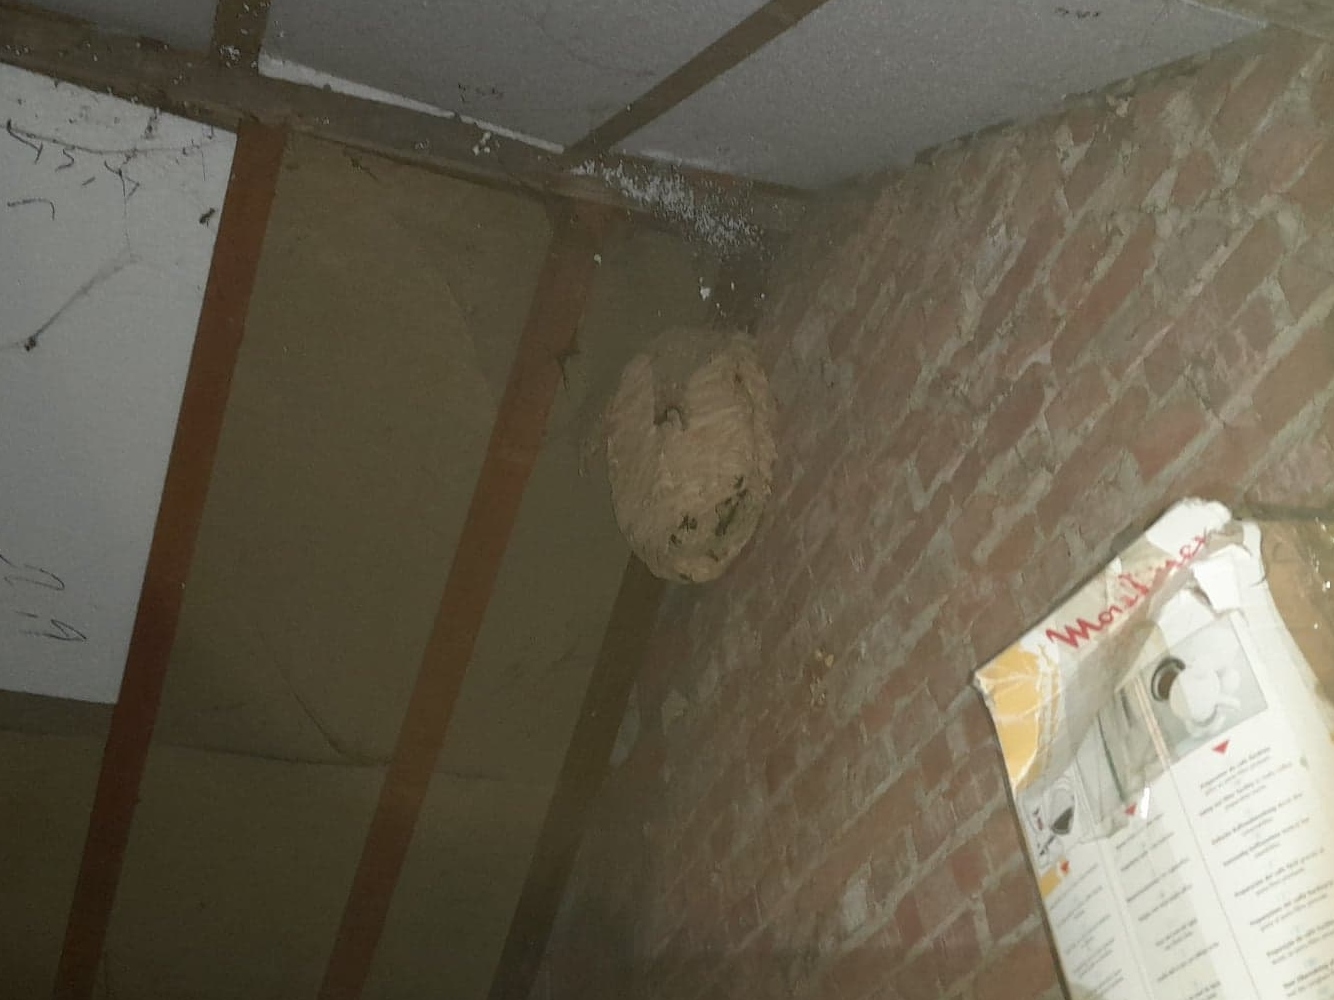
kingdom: Animalia
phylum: Arthropoda
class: Insecta
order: Hymenoptera
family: Vespidae
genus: Vespa
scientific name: Vespa velutina
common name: Asian hornet
